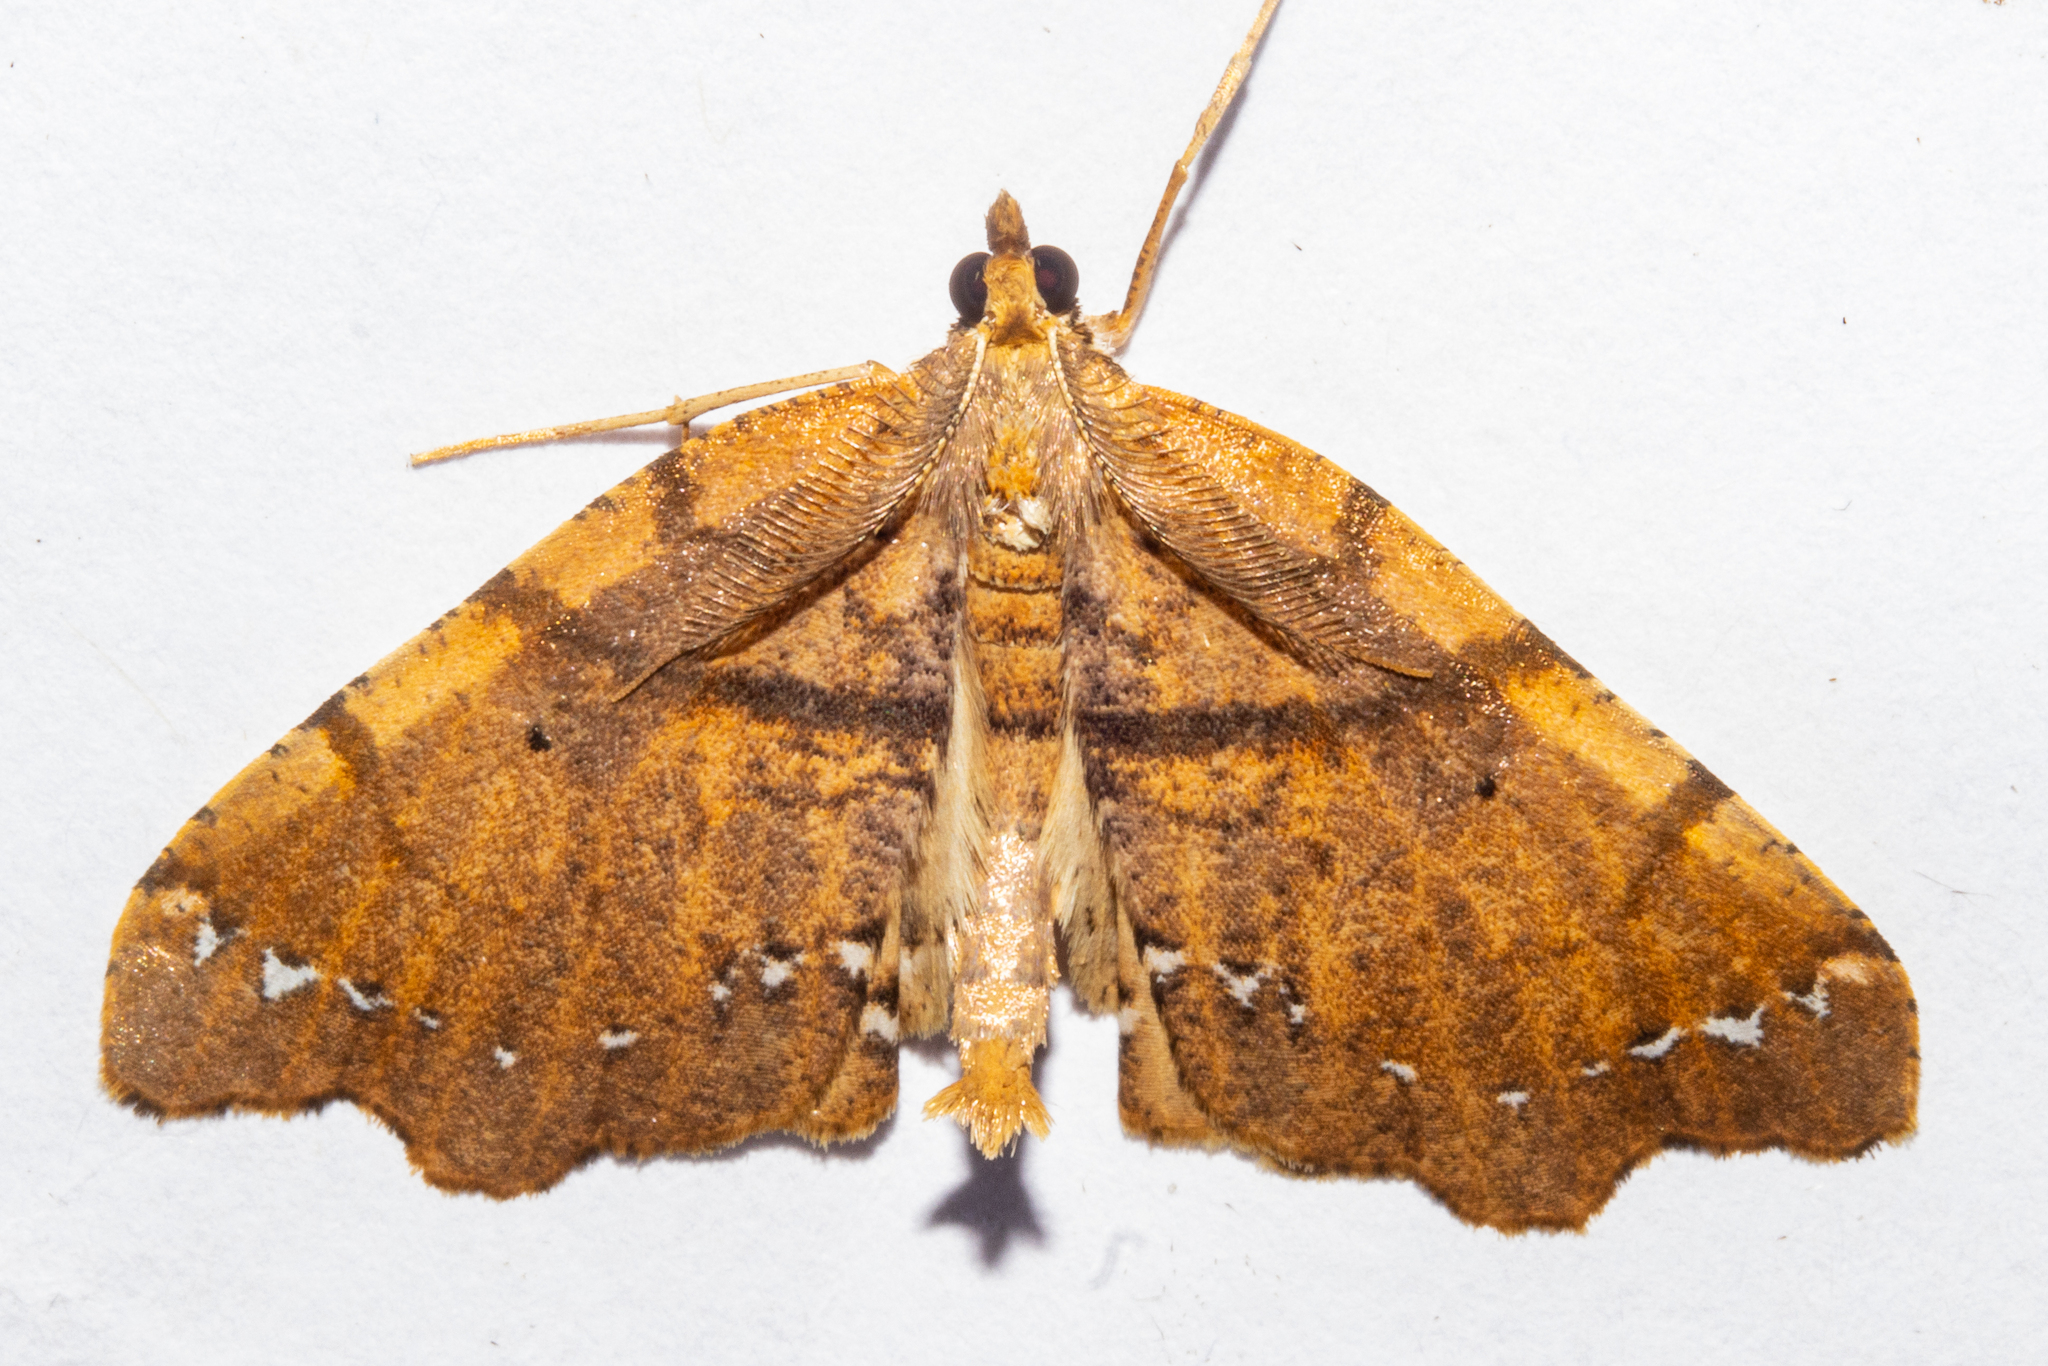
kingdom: Animalia
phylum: Arthropoda
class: Insecta
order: Lepidoptera
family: Geometridae
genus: Chalastra
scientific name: Chalastra pellurgata
